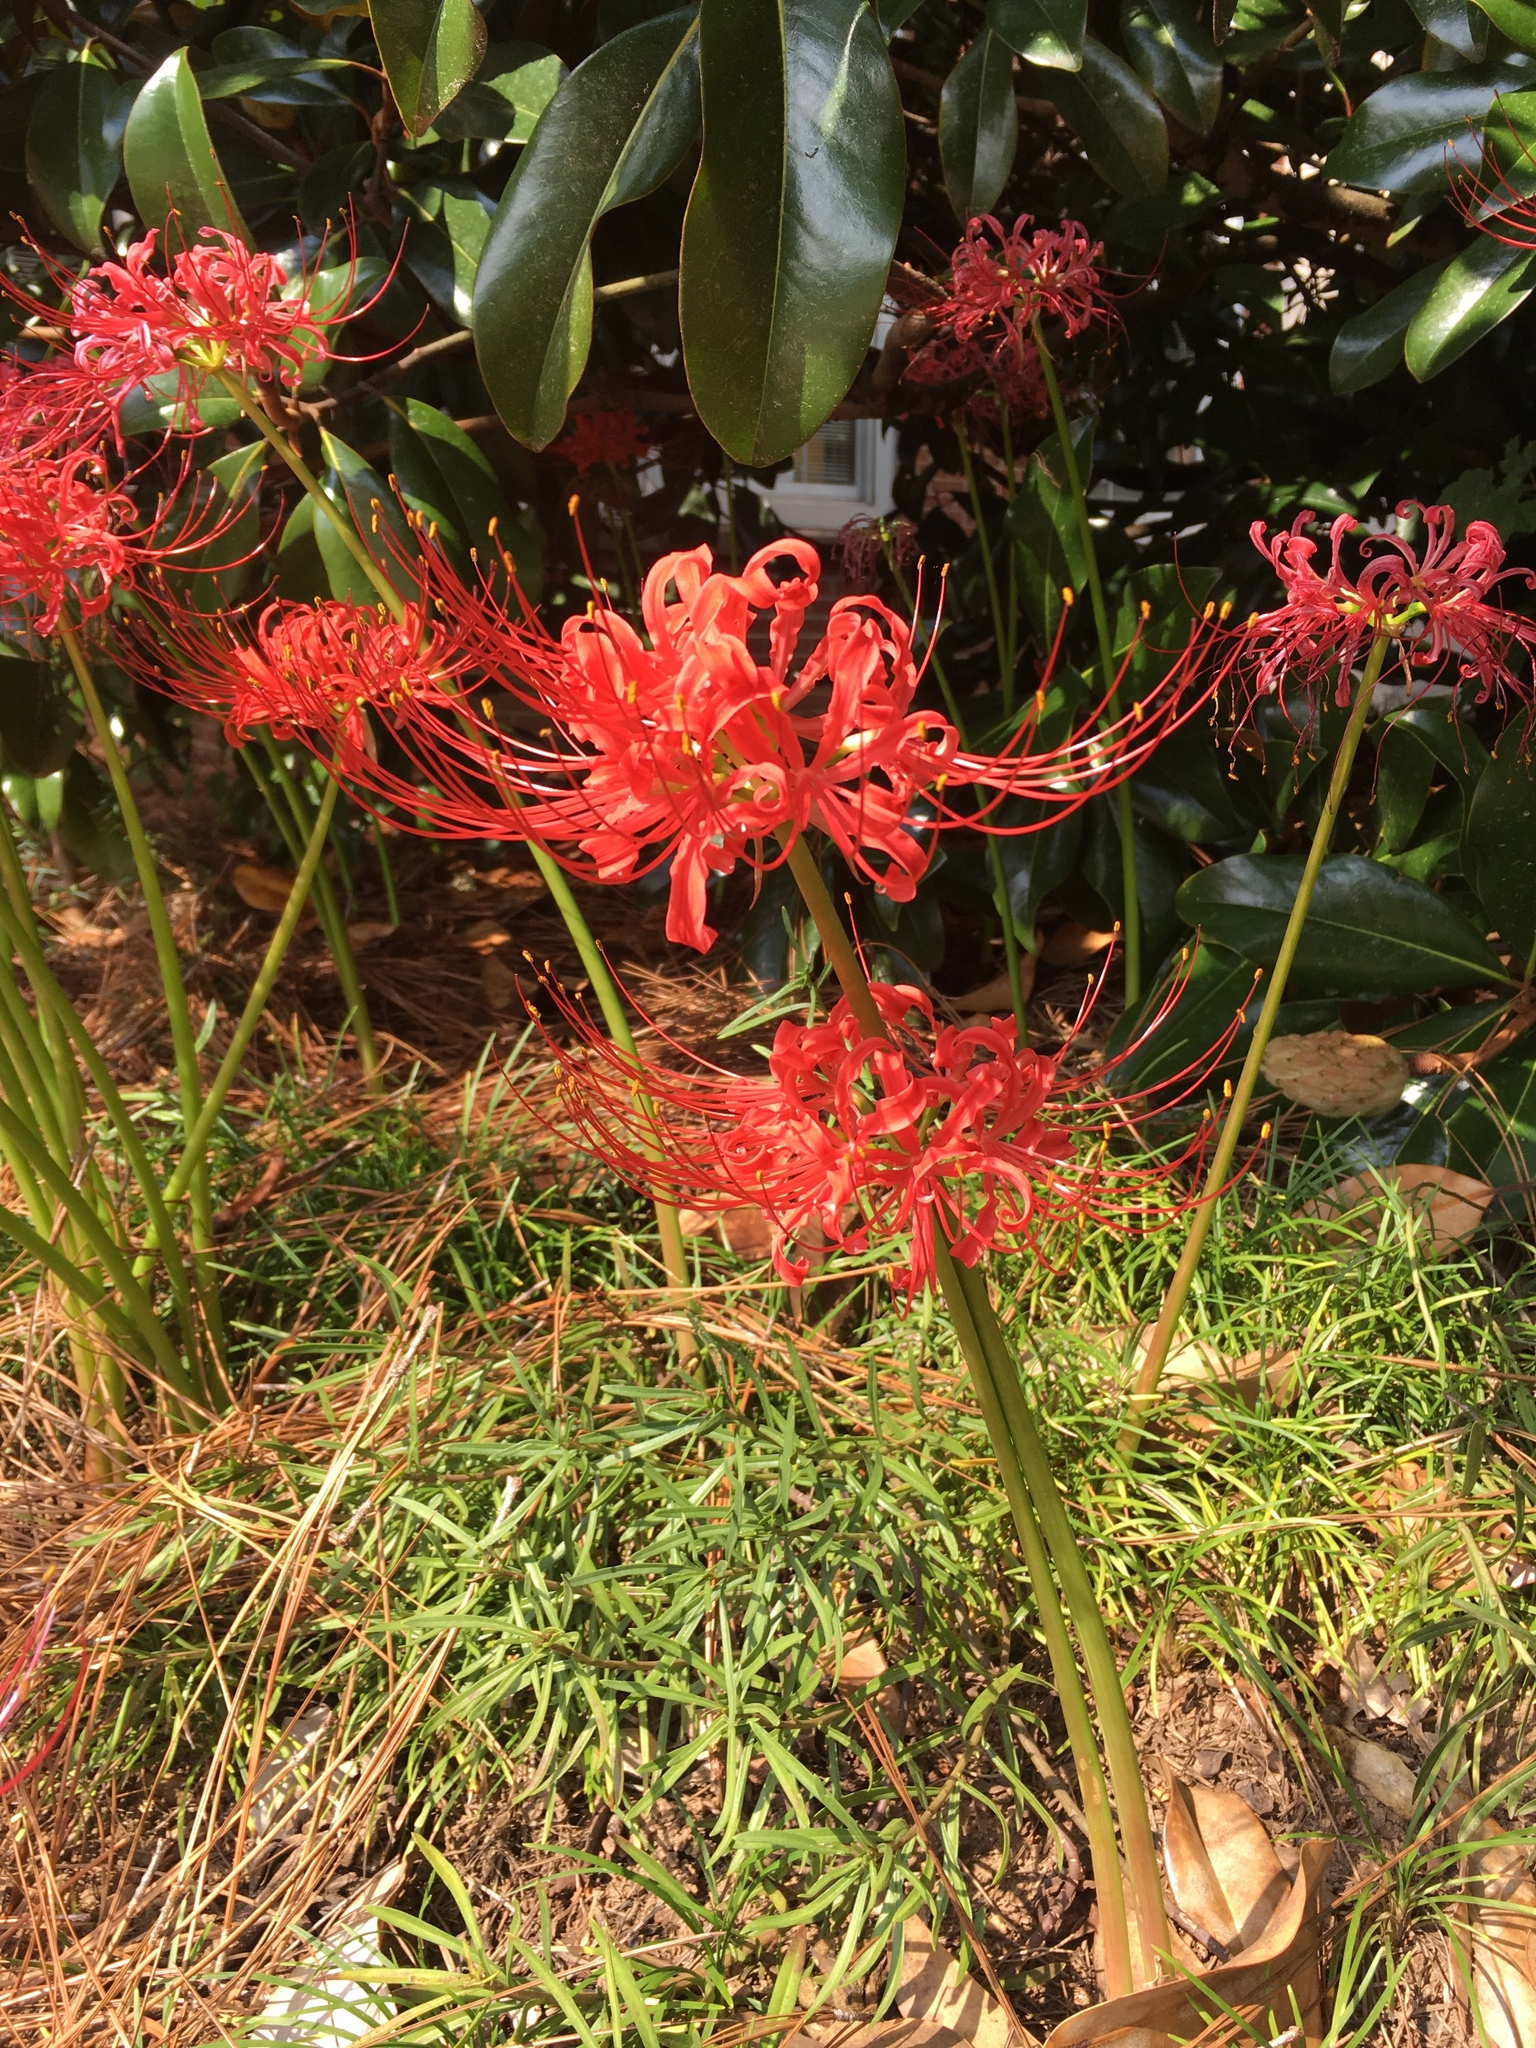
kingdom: Plantae
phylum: Tracheophyta
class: Liliopsida
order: Asparagales
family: Amaryllidaceae
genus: Lycoris
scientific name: Lycoris radiata
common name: Red spider lily
